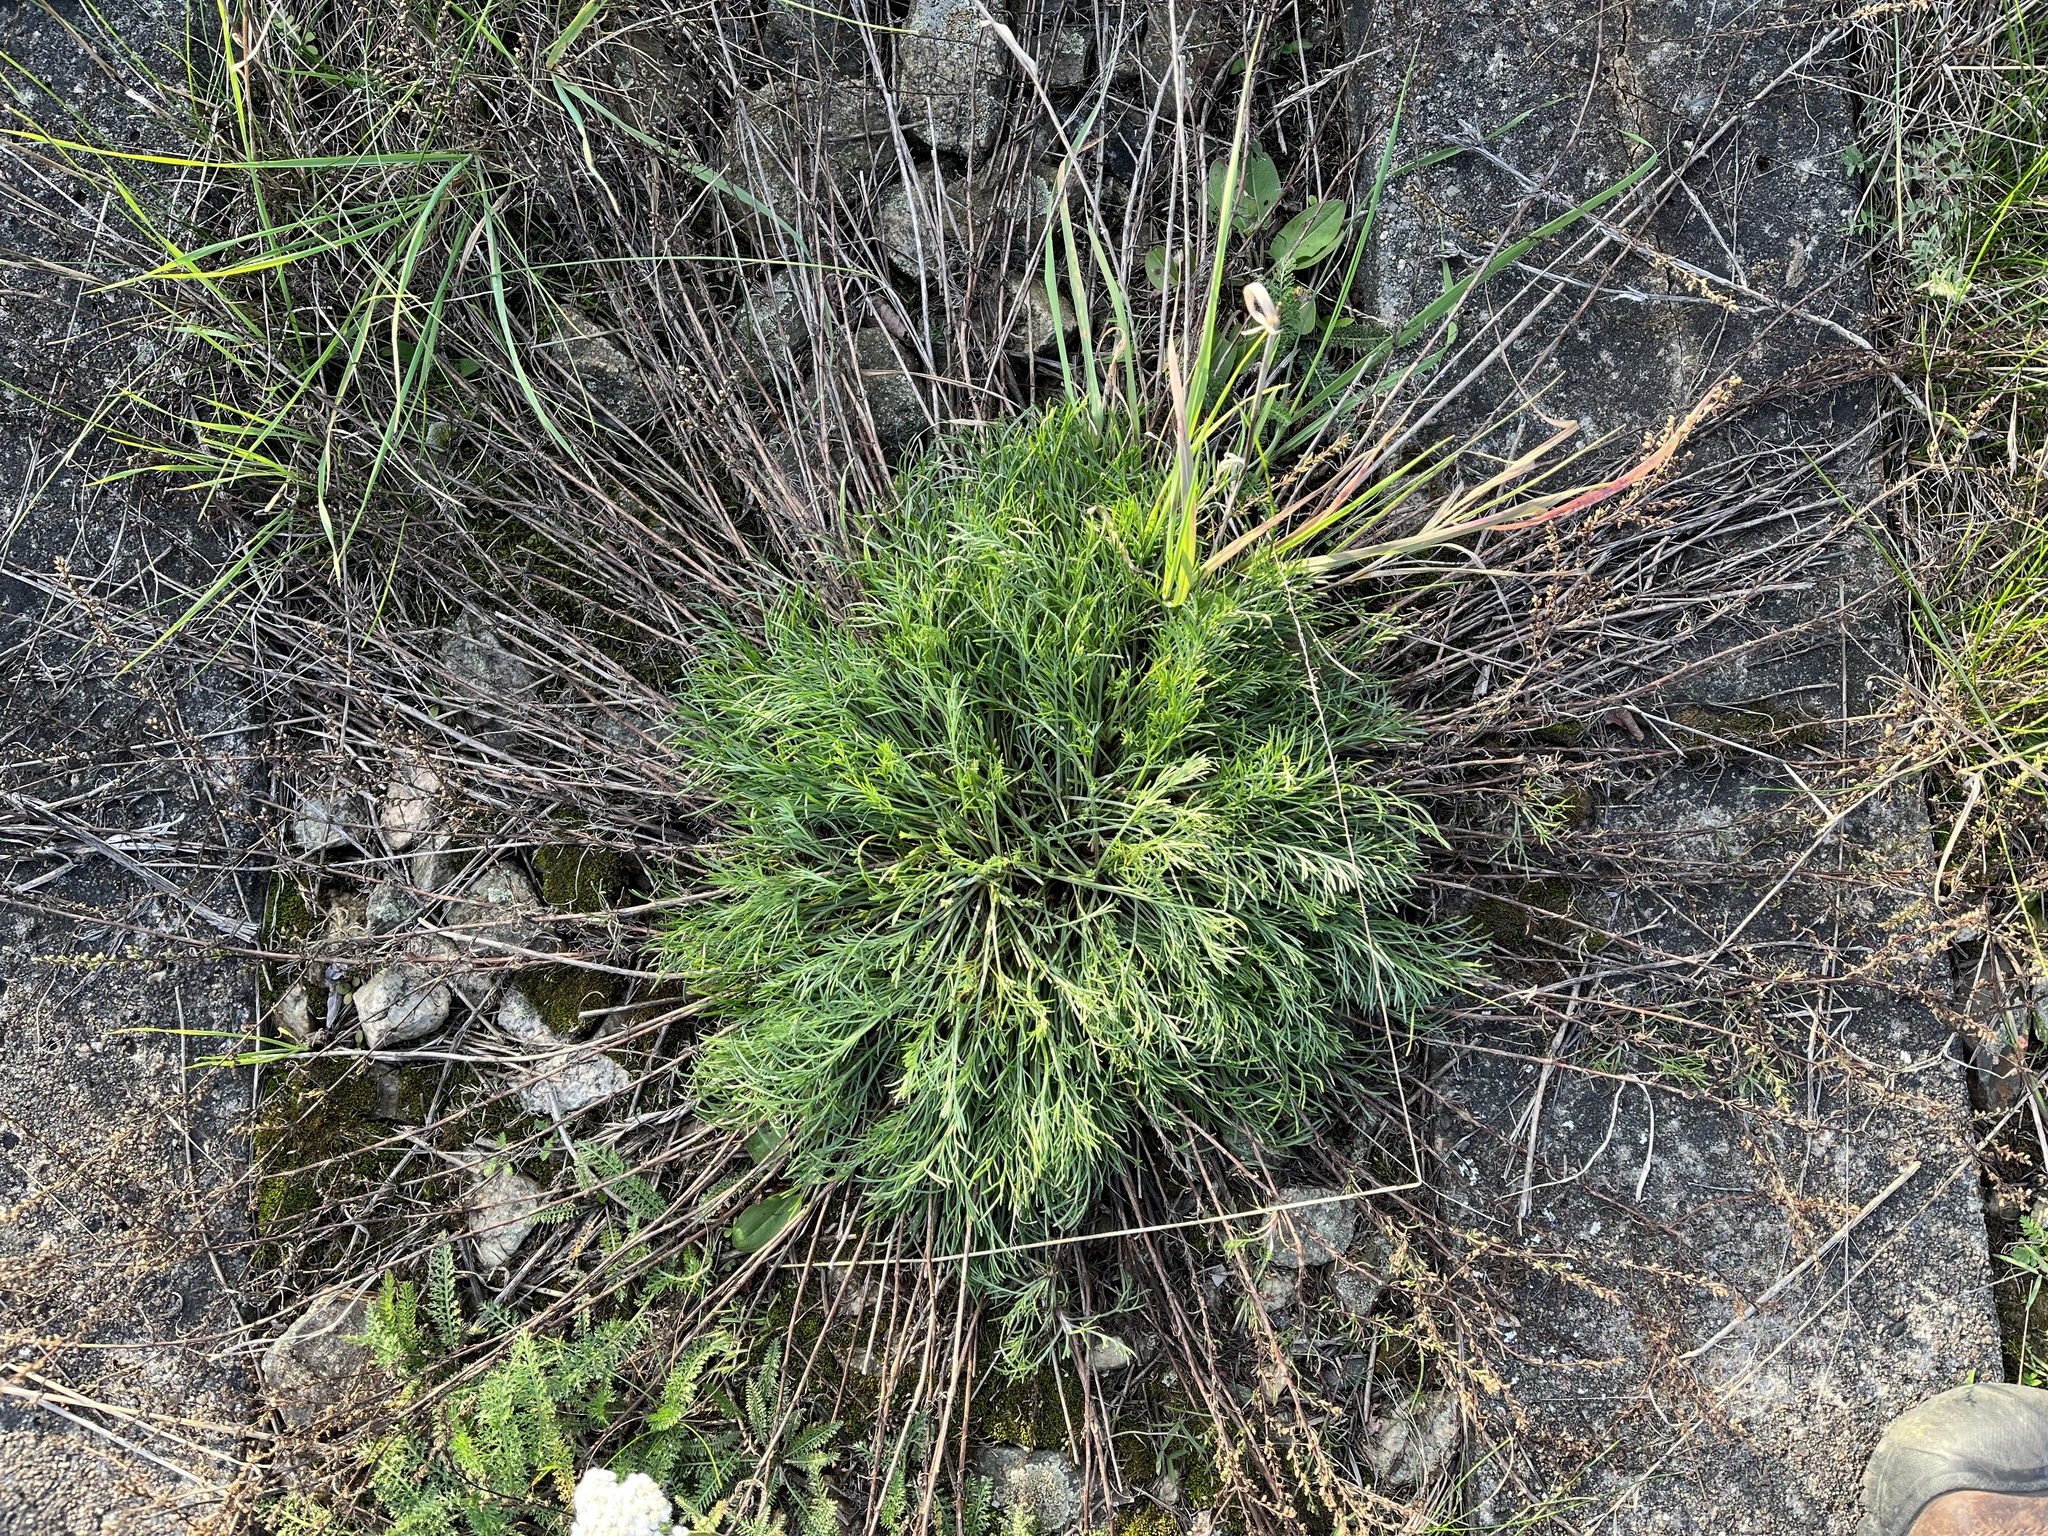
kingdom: Plantae
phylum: Tracheophyta
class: Magnoliopsida
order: Asterales
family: Asteraceae
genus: Artemisia
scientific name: Artemisia campestris
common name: Field wormwood
